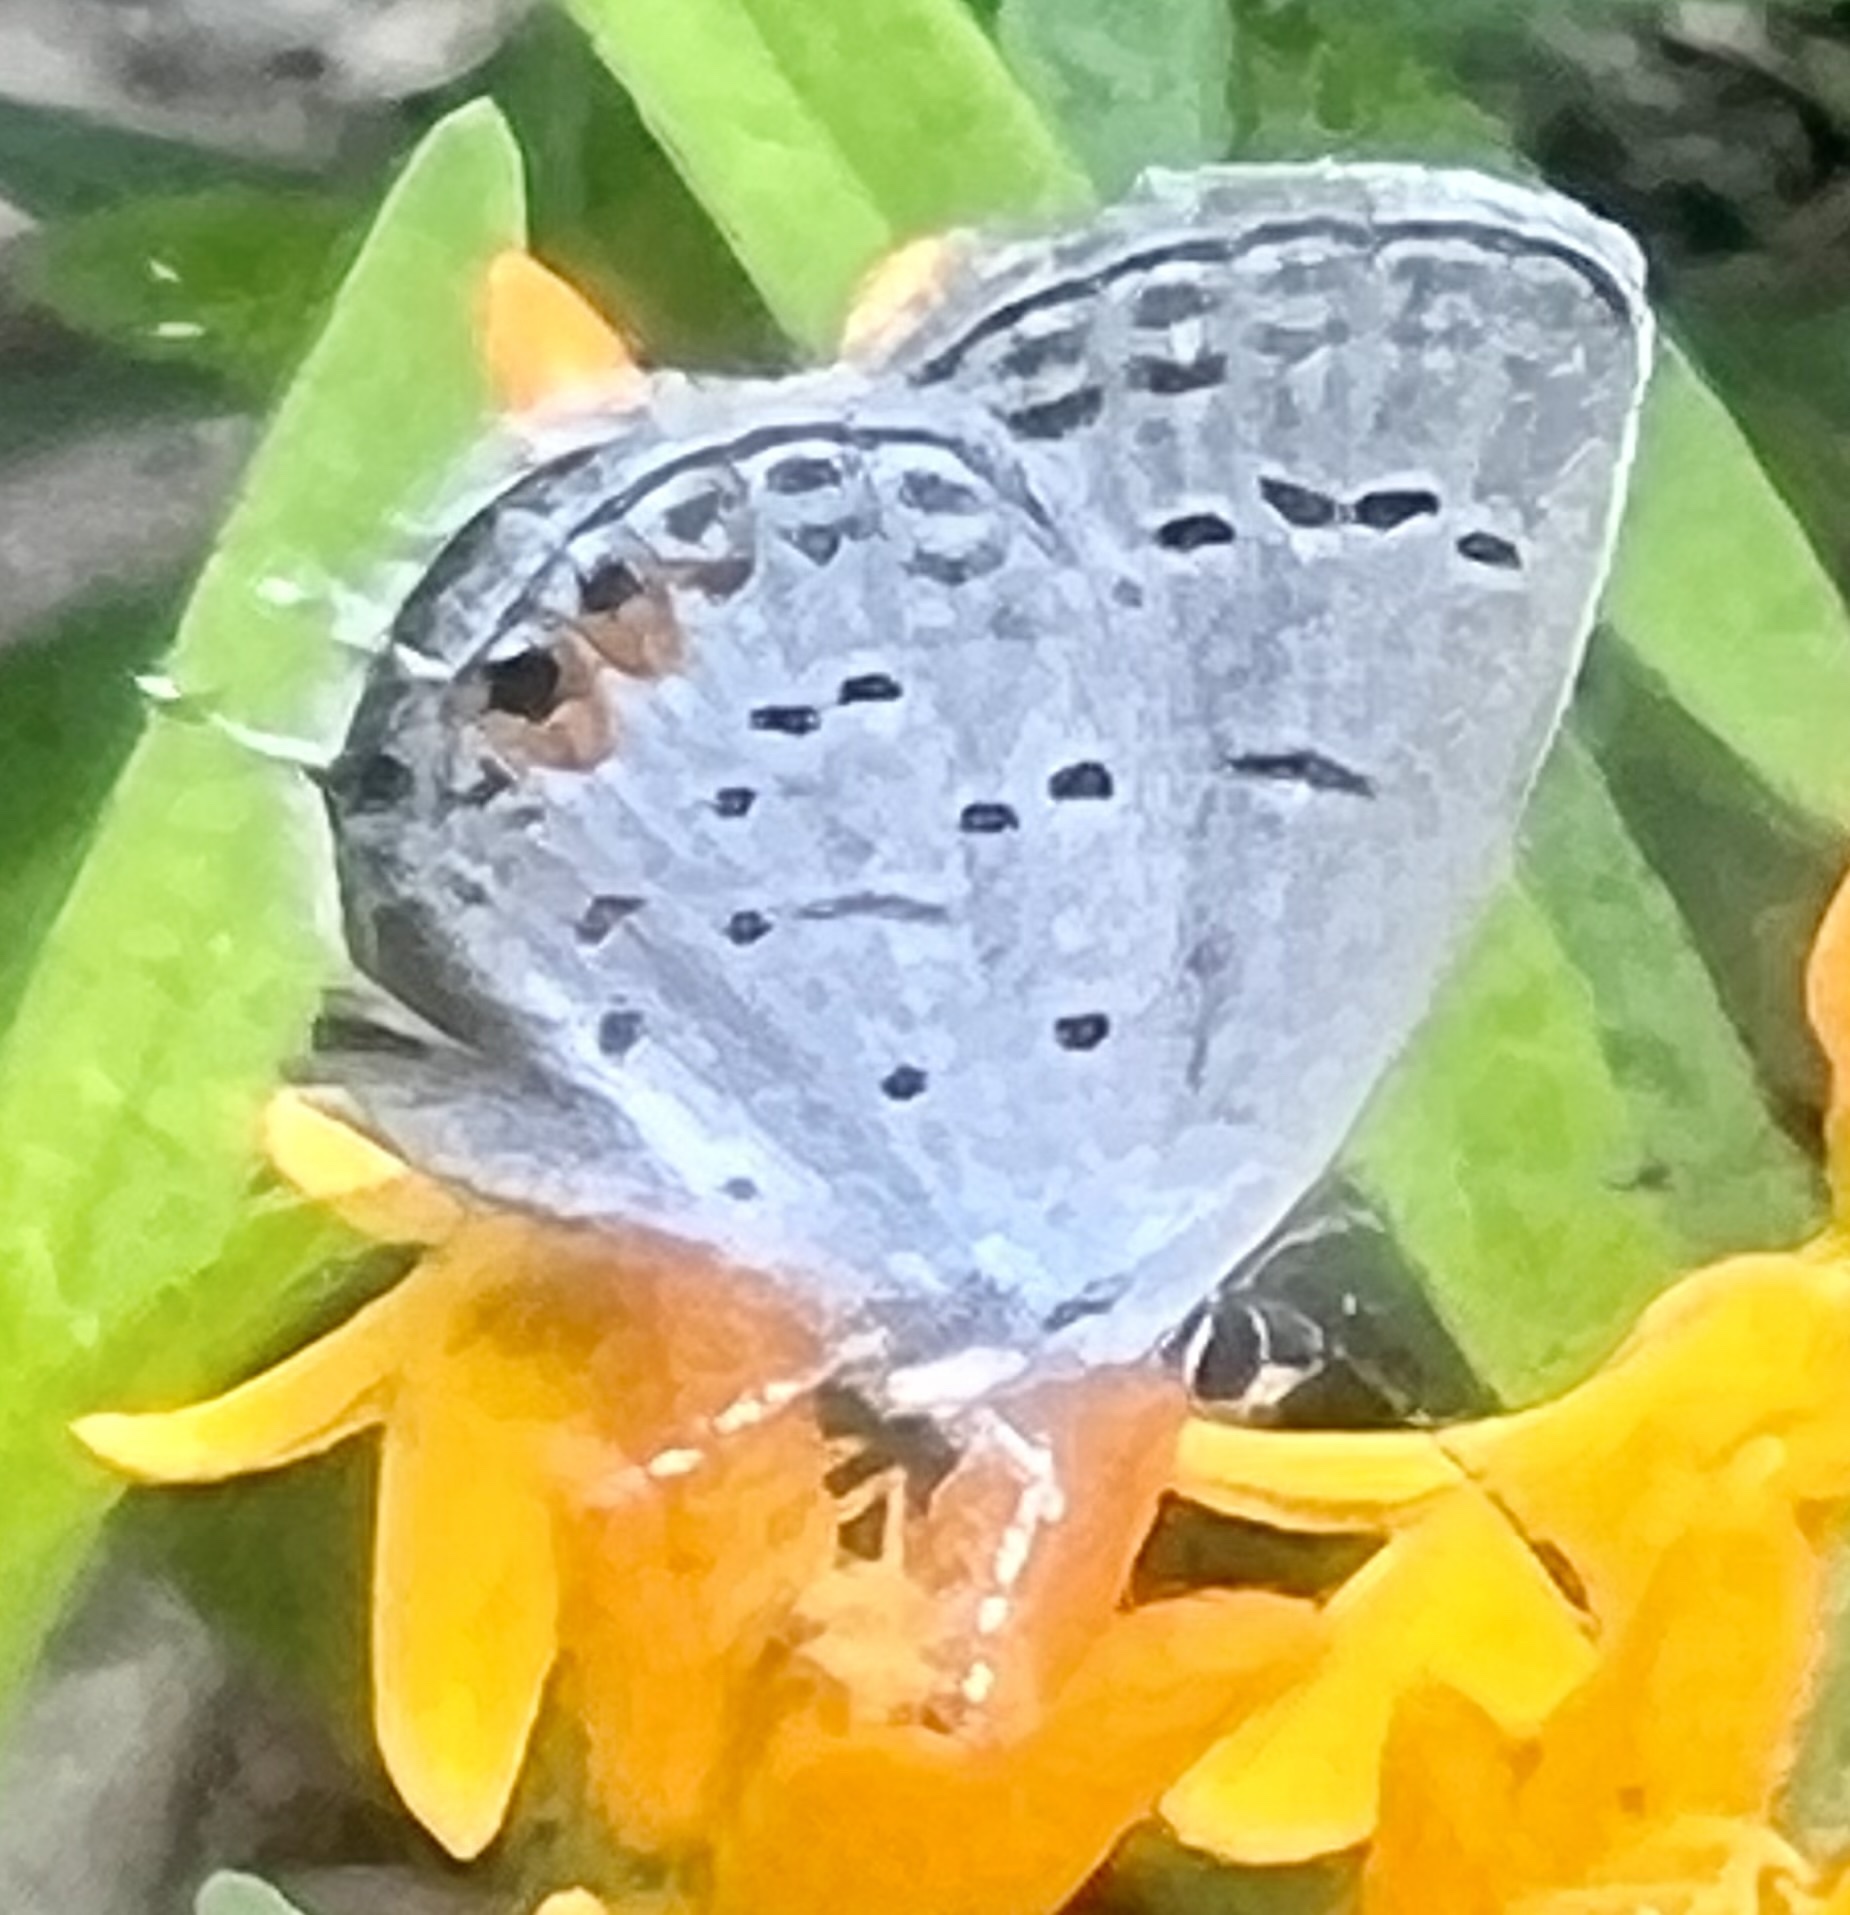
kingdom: Animalia
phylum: Arthropoda
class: Insecta
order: Lepidoptera
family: Lycaenidae
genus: Elkalyce
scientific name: Elkalyce comyntas
